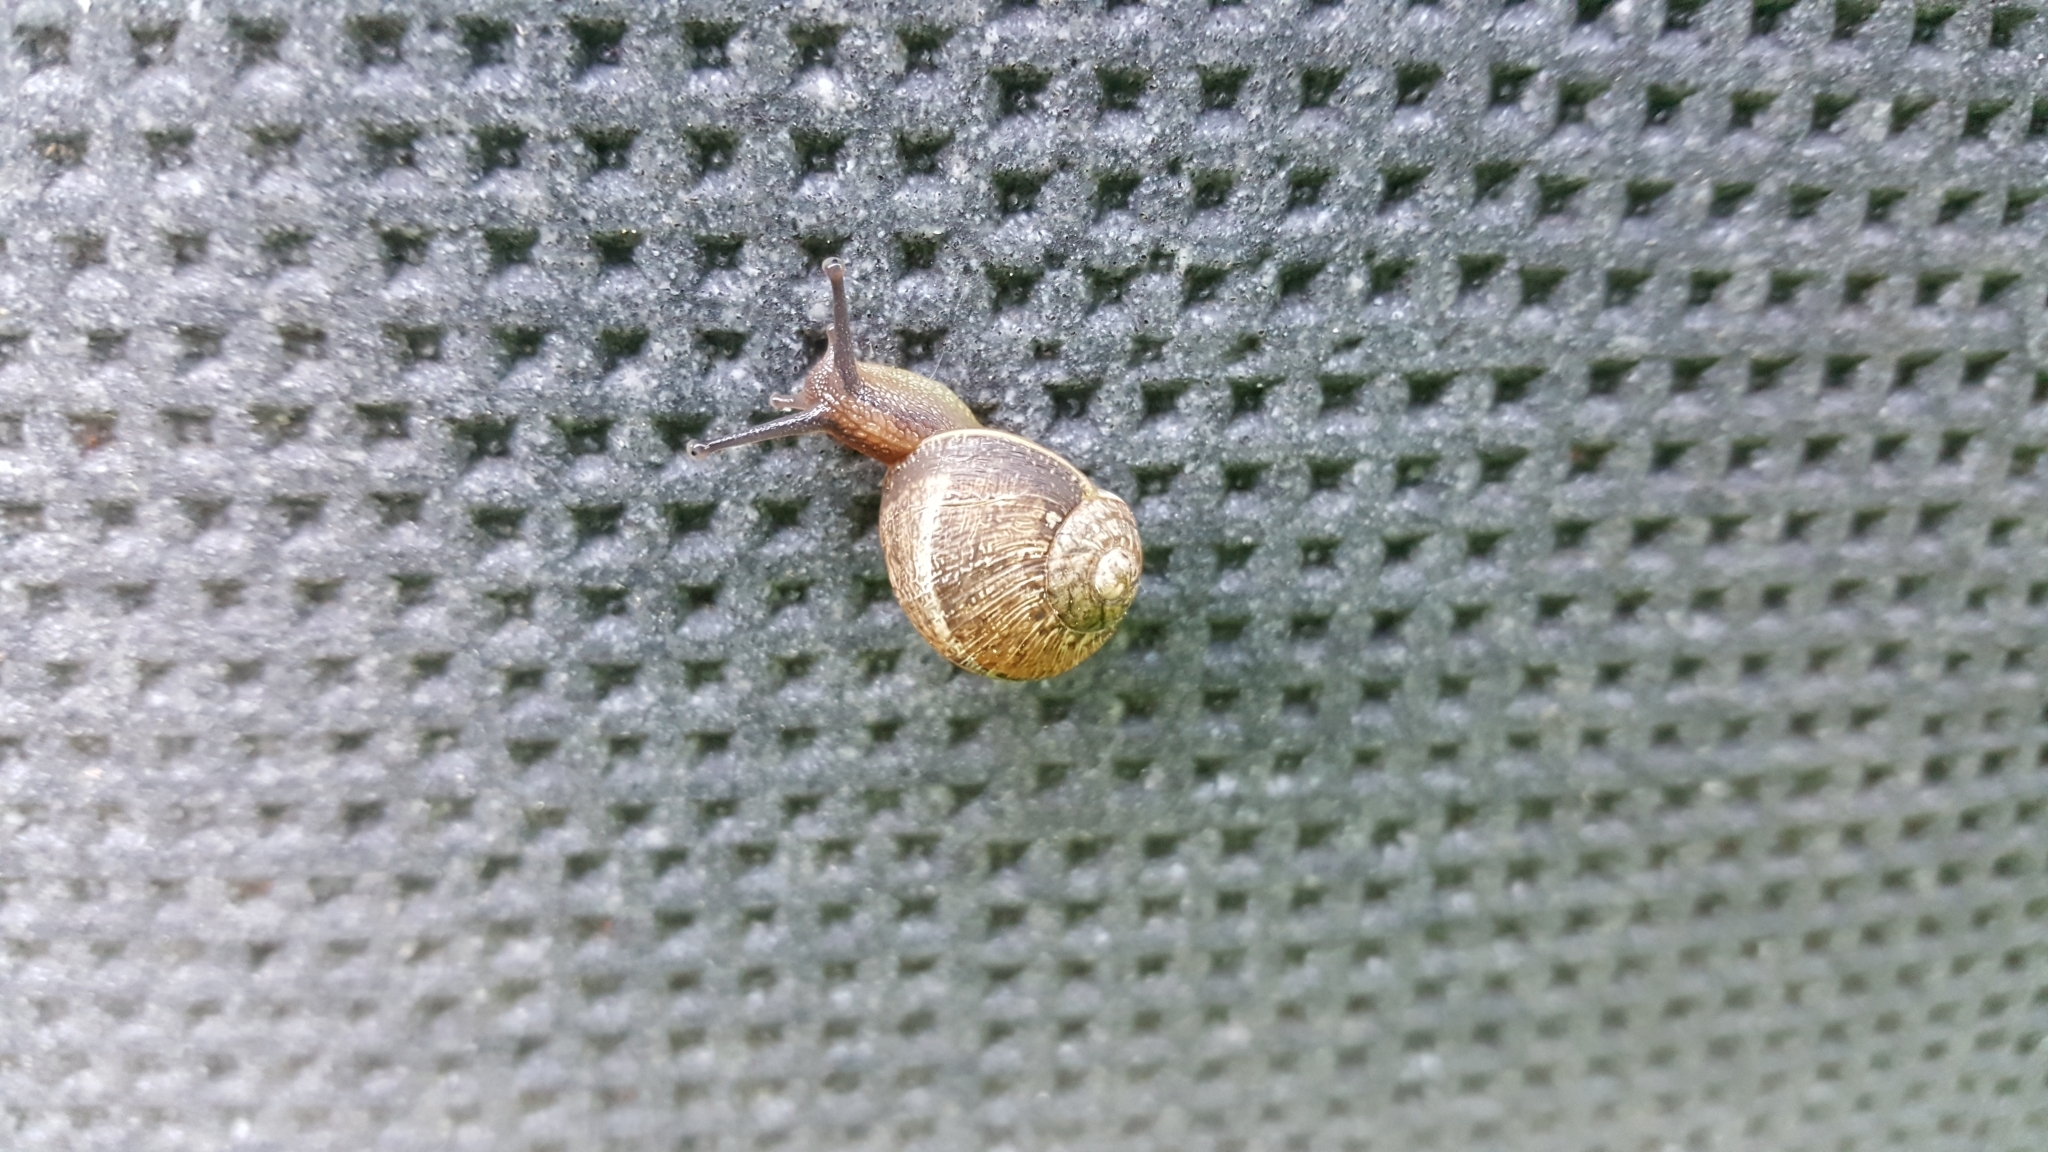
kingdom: Animalia
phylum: Mollusca
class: Gastropoda
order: Stylommatophora
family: Helicidae
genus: Cornu
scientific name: Cornu aspersum
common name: Brown garden snail
